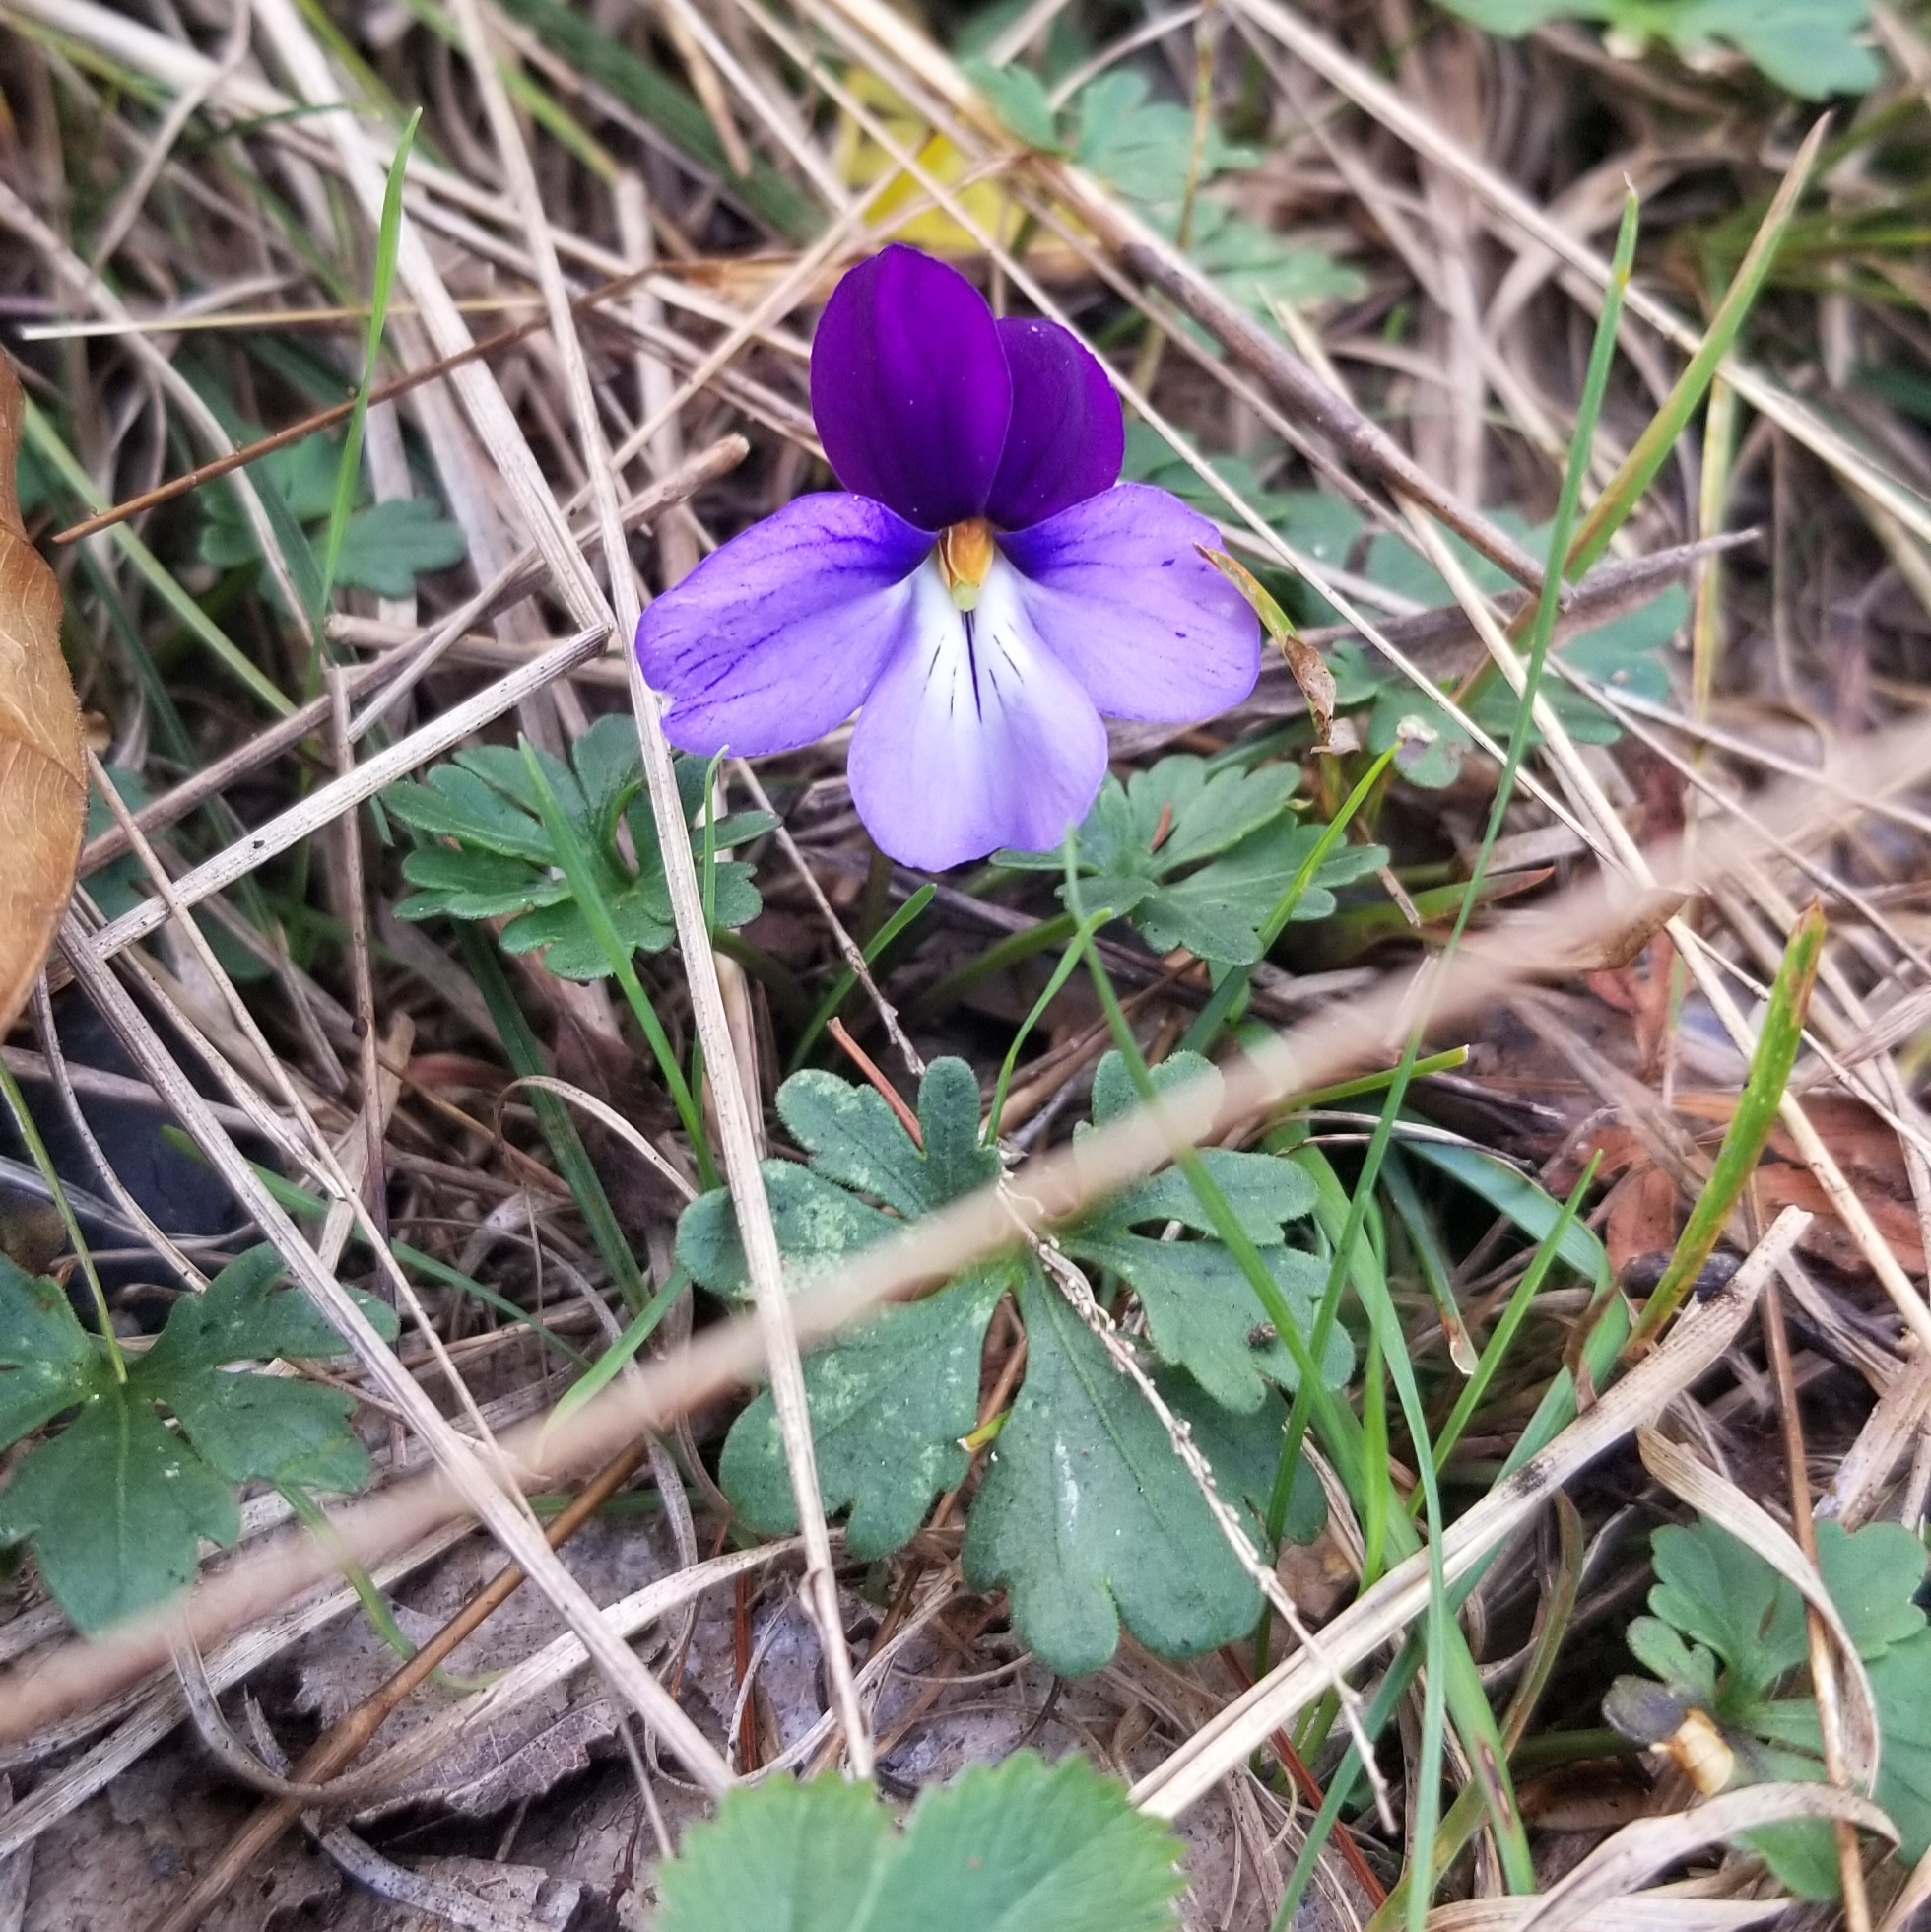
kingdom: Plantae
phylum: Tracheophyta
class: Magnoliopsida
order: Malpighiales
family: Violaceae
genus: Viola
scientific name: Viola pedata
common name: Pansy violet
